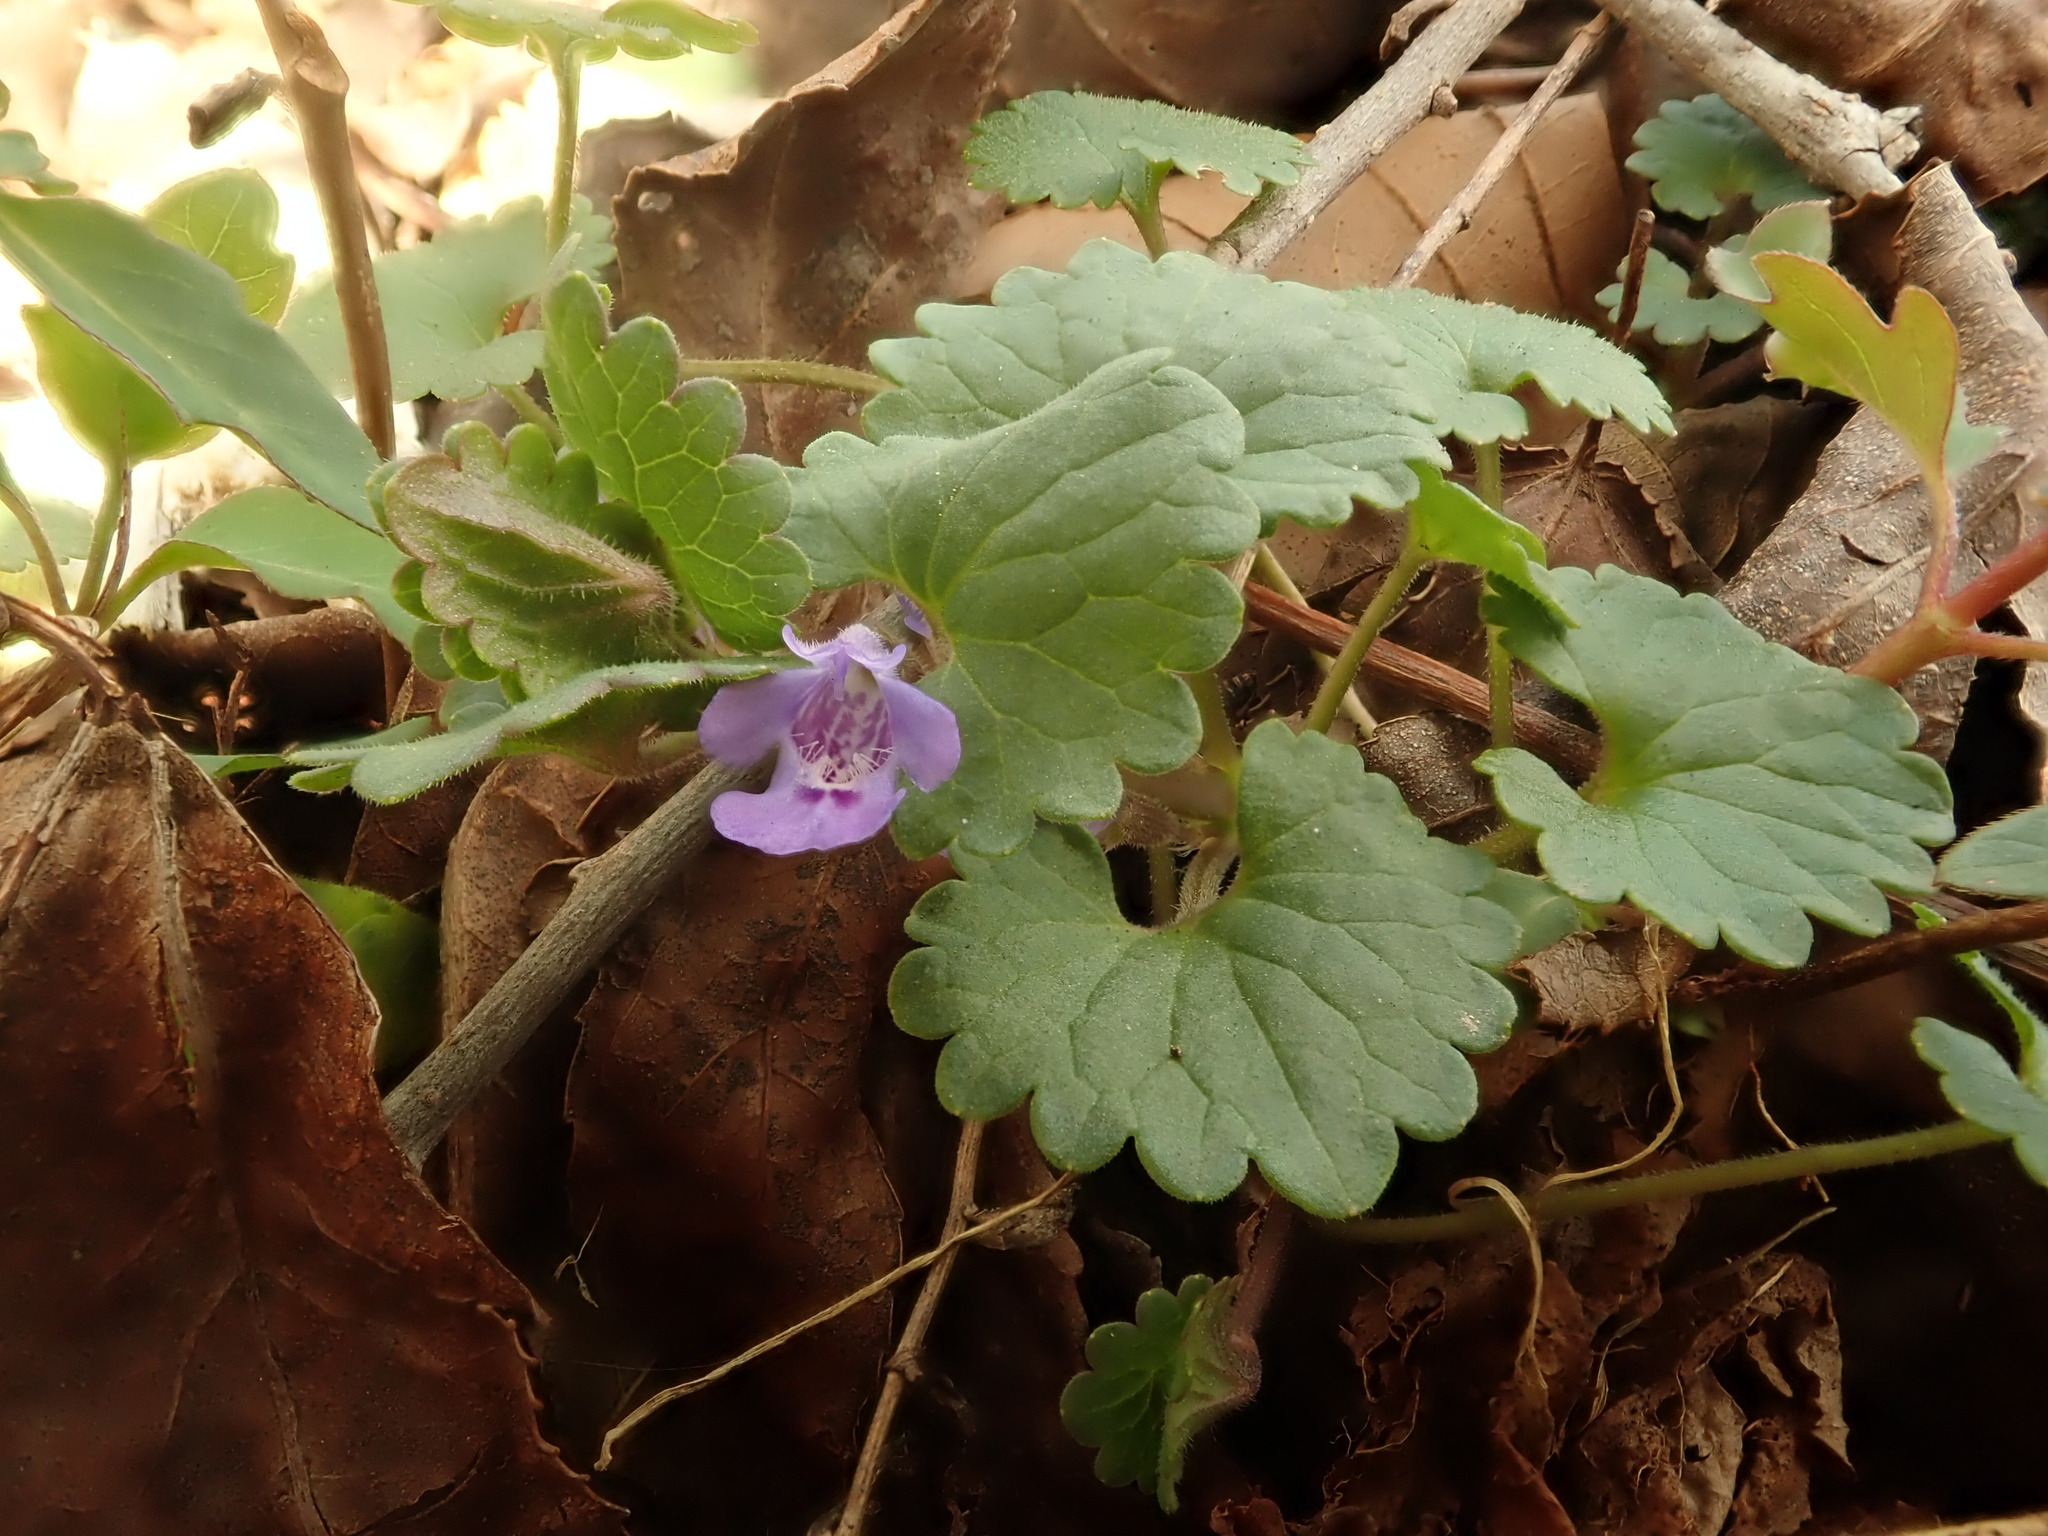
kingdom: Plantae
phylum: Tracheophyta
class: Magnoliopsida
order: Lamiales
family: Lamiaceae
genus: Glechoma
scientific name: Glechoma hederacea
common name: Ground ivy
